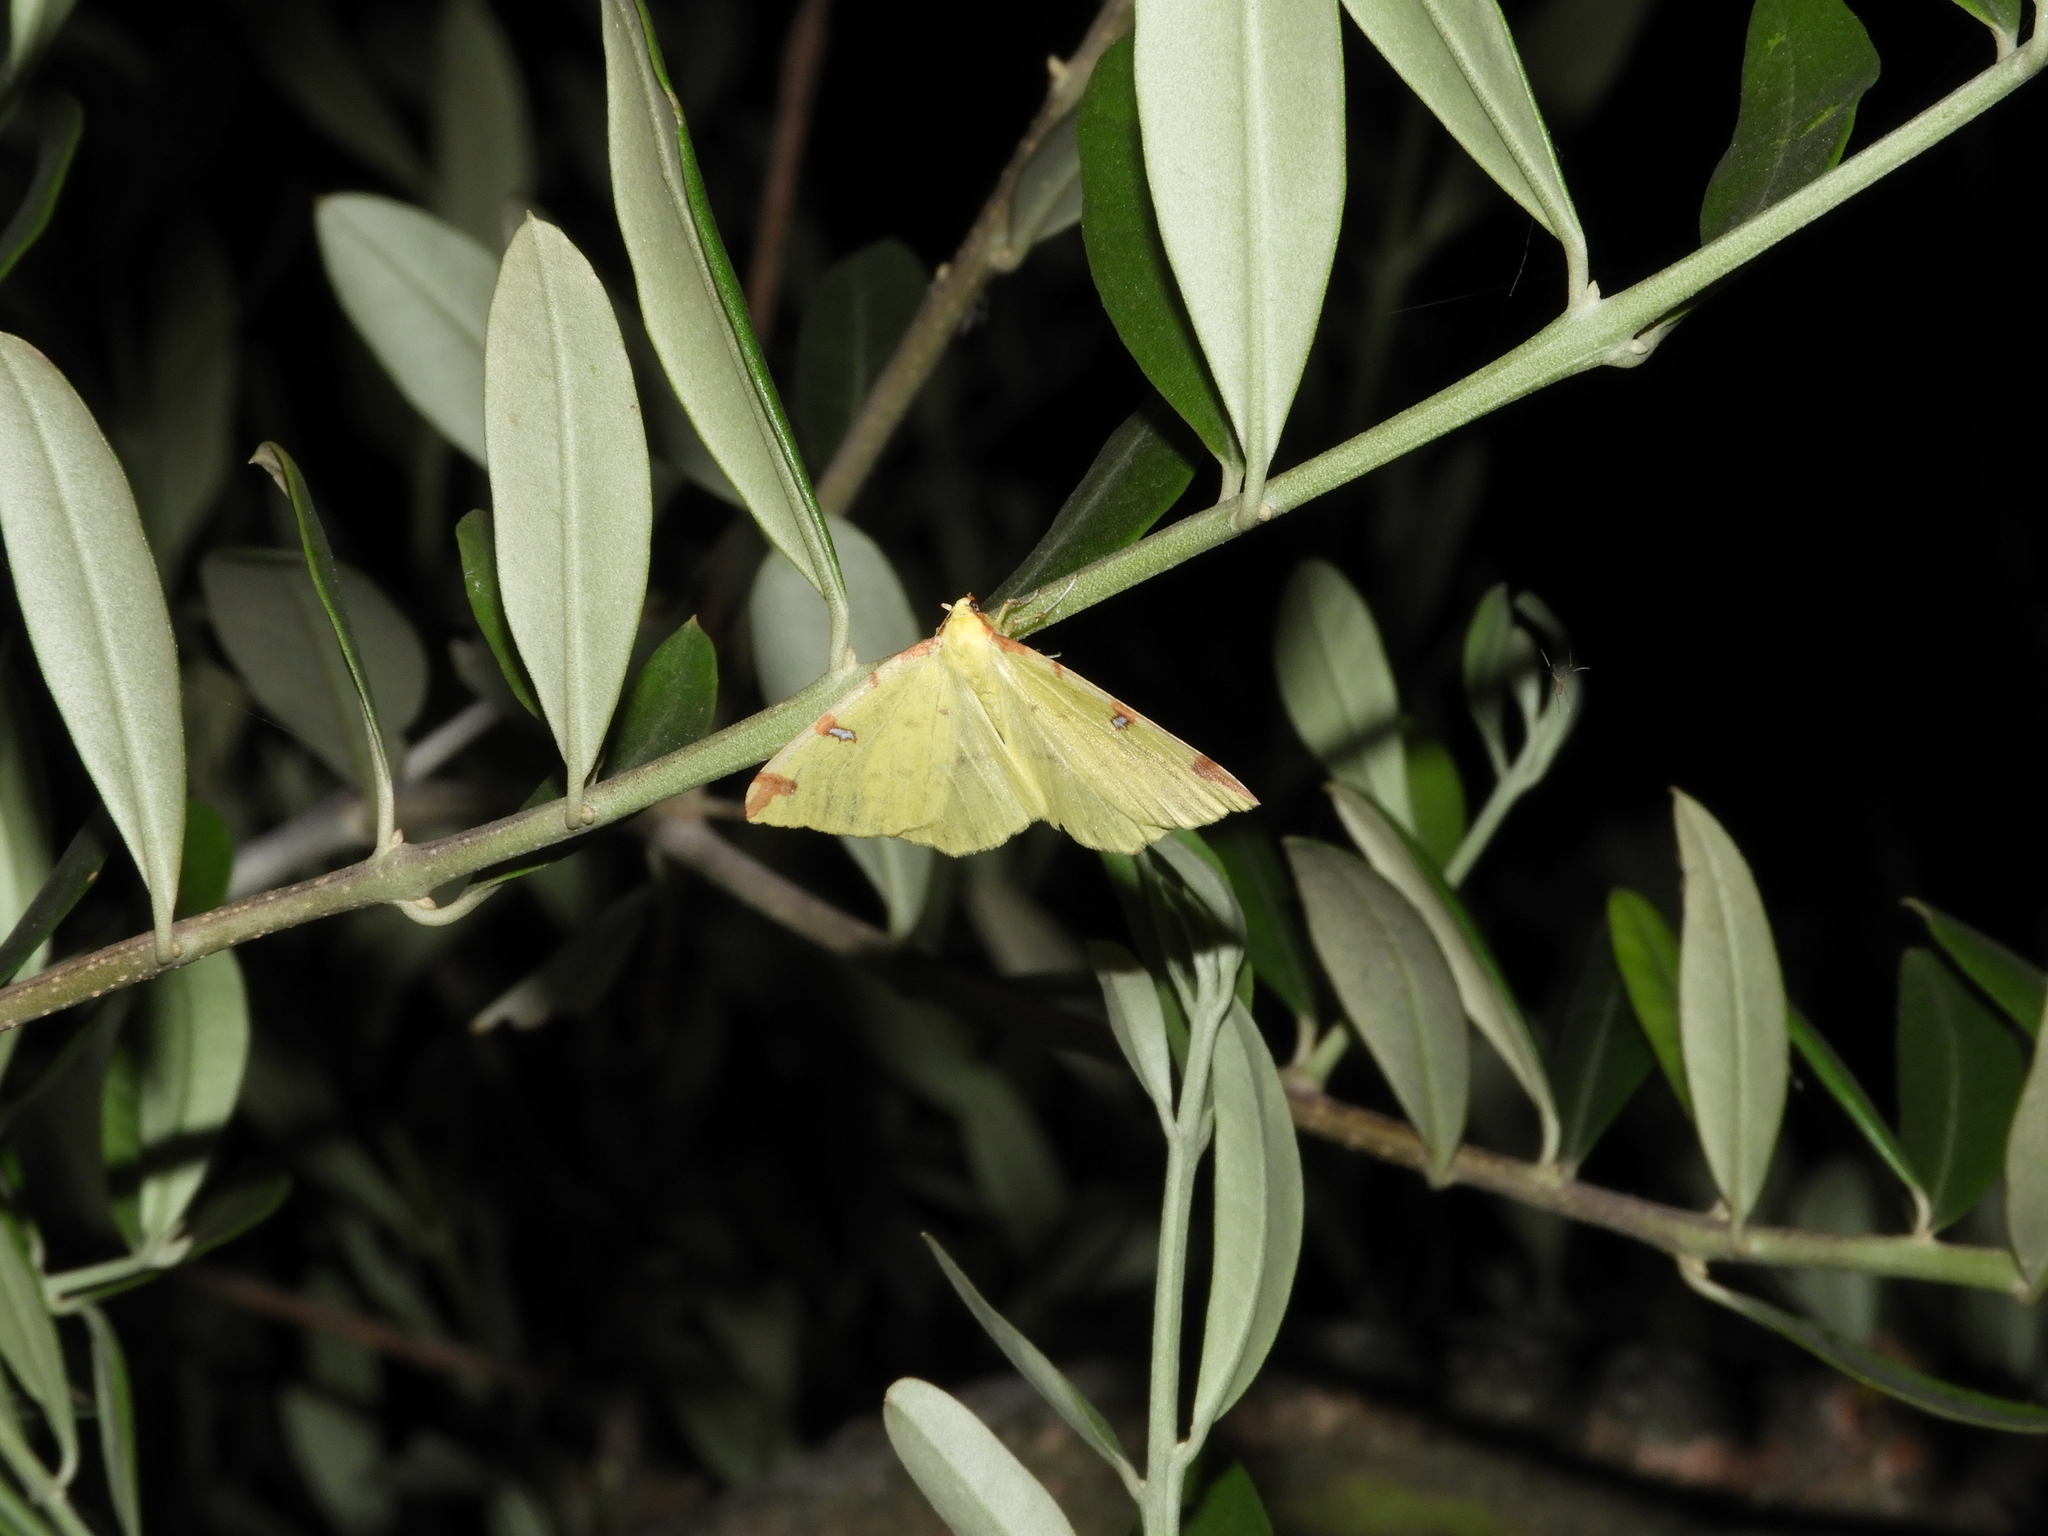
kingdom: Animalia
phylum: Arthropoda
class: Insecta
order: Lepidoptera
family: Geometridae
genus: Opisthograptis
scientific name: Opisthograptis luteolata
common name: Brimstone moth
